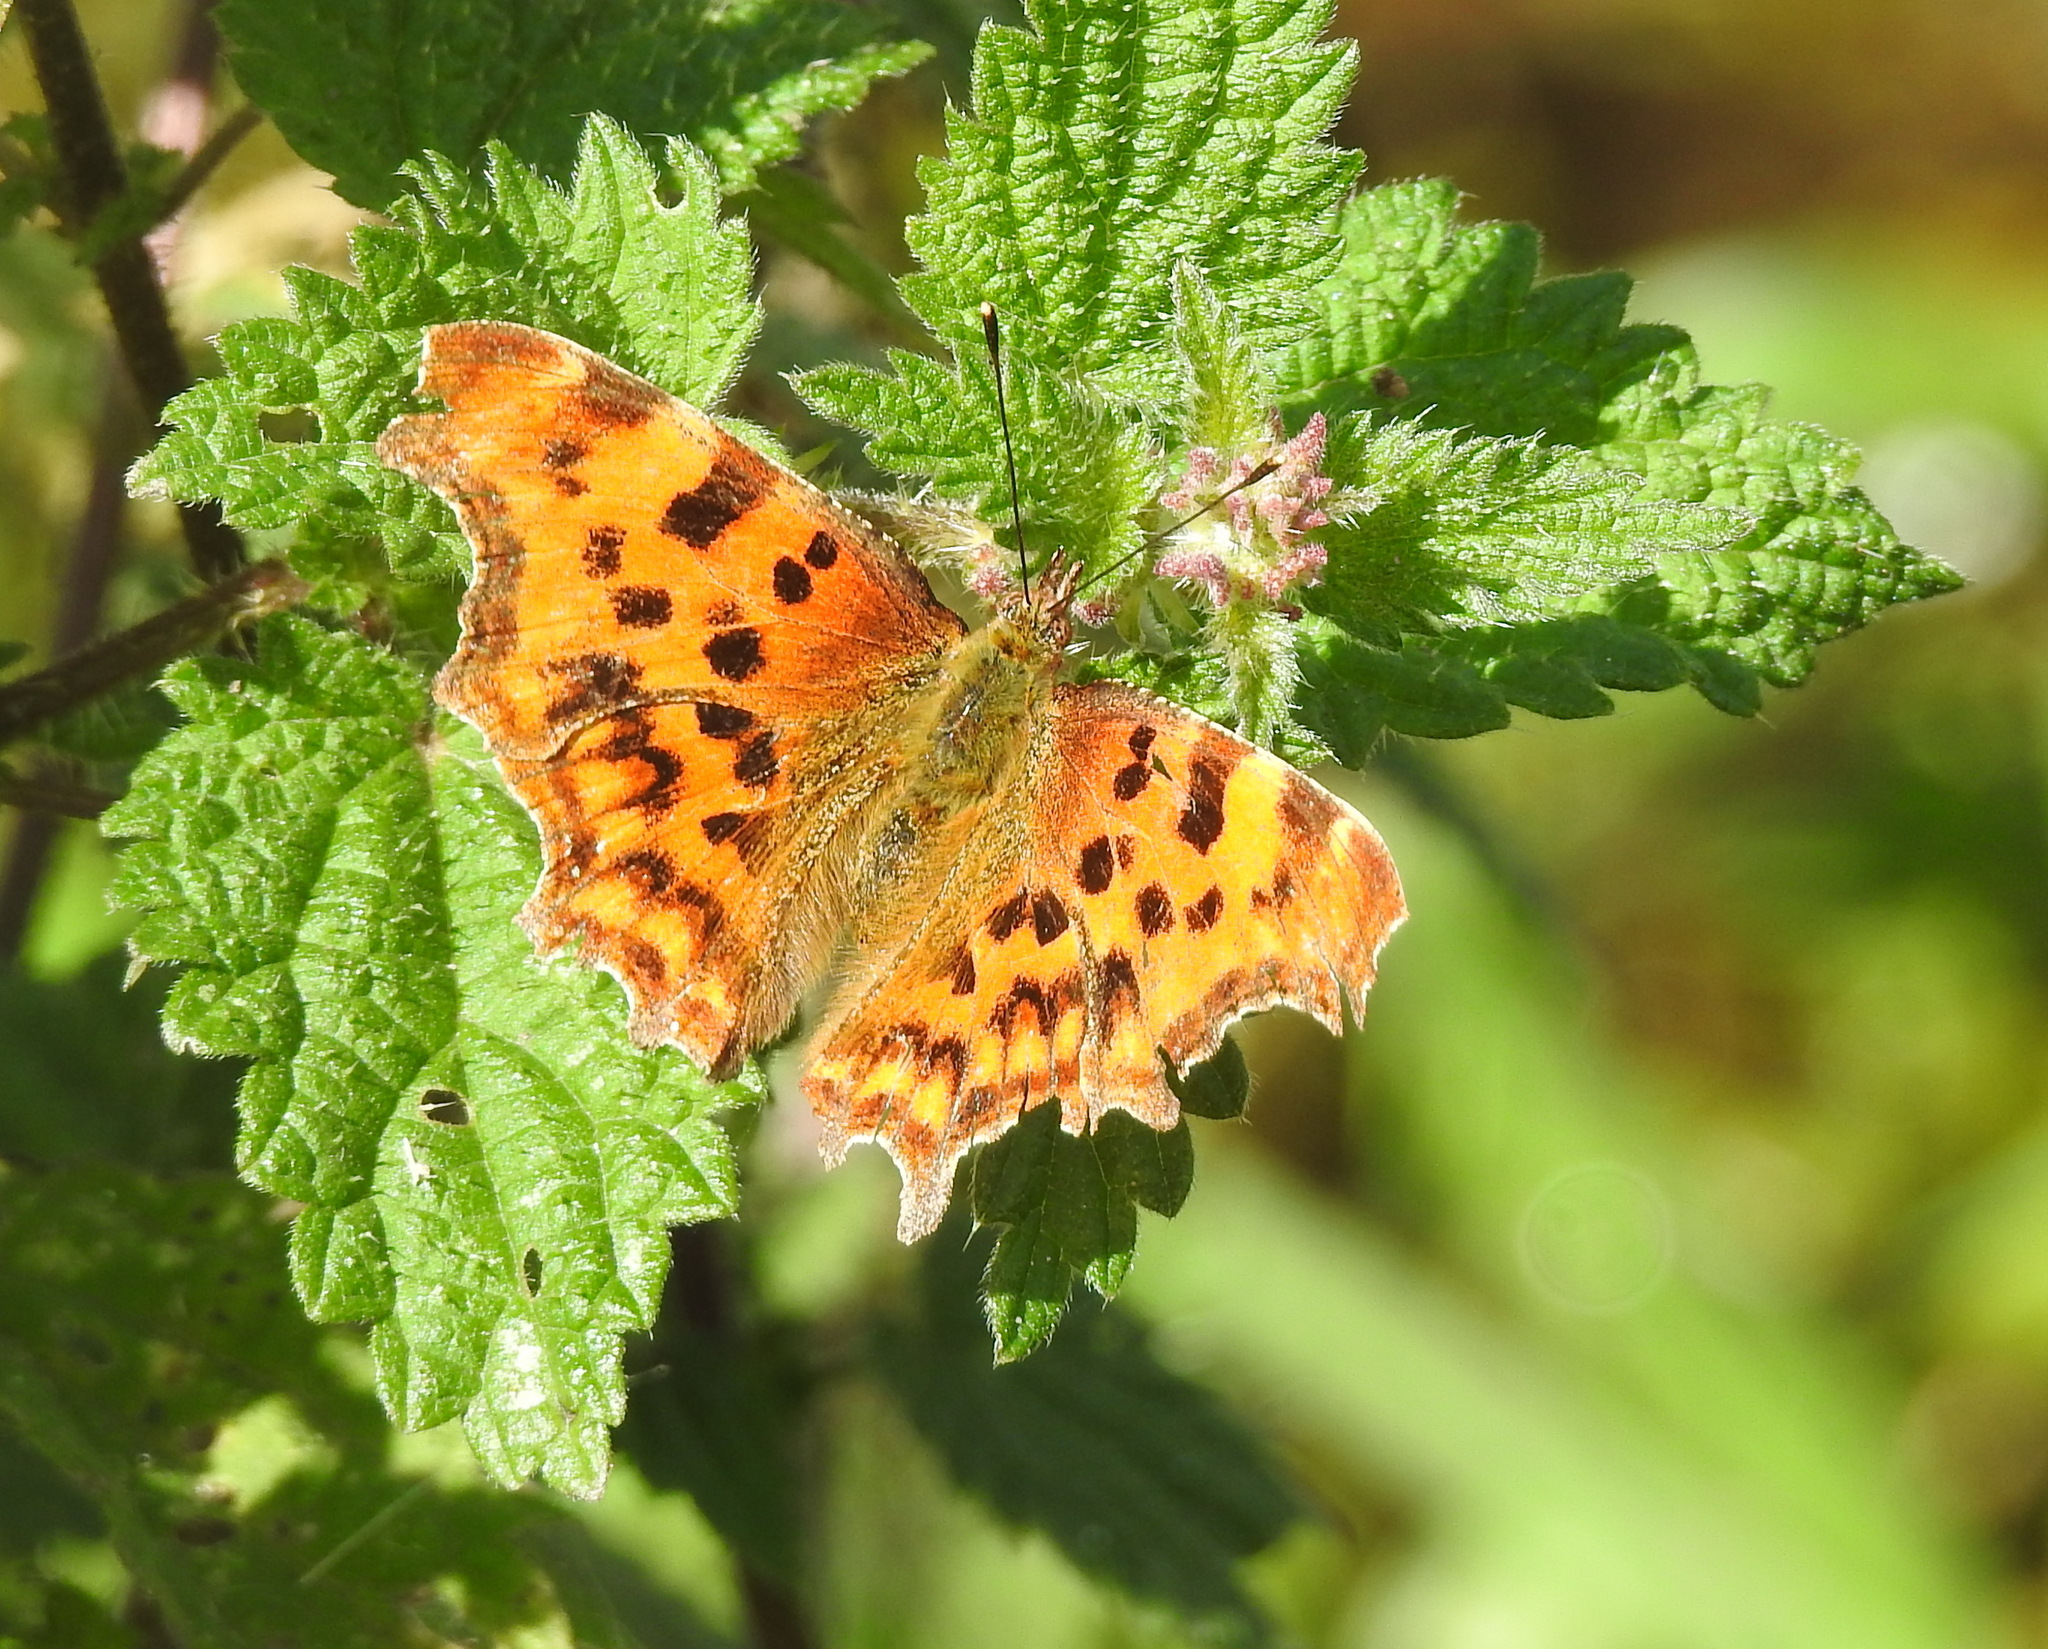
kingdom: Animalia
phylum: Arthropoda
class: Insecta
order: Lepidoptera
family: Nymphalidae
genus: Polygonia
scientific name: Polygonia c-album
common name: Comma
